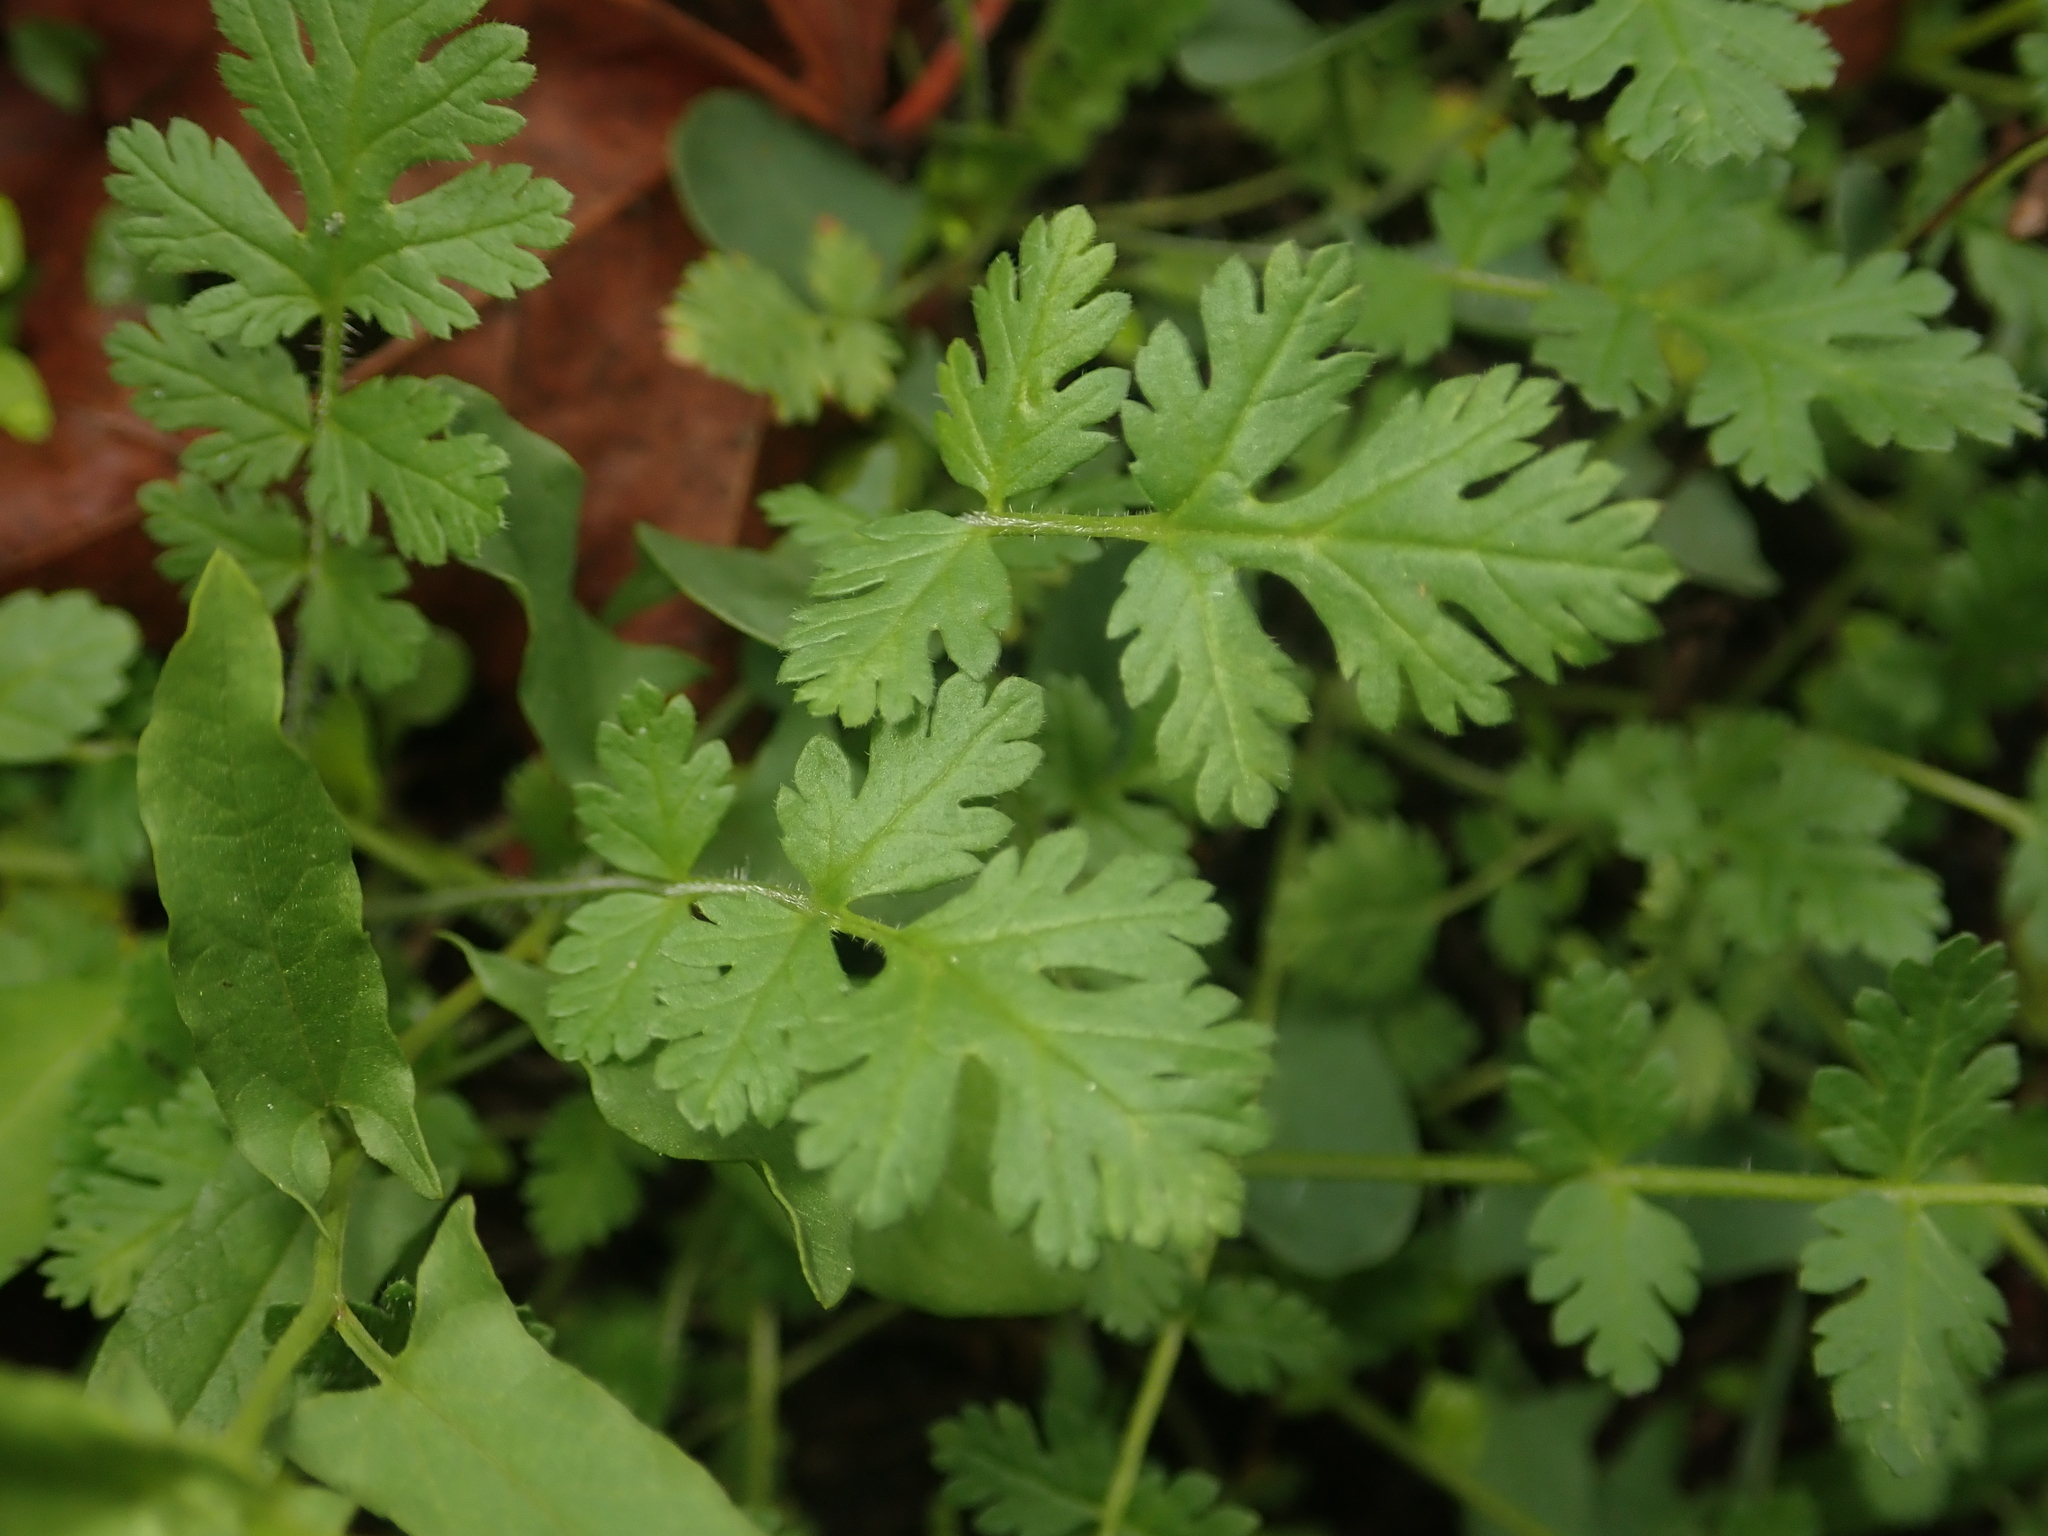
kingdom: Plantae
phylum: Tracheophyta
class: Magnoliopsida
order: Geraniales
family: Geraniaceae
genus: Erodium
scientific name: Erodium cicutarium
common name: Common stork's-bill
